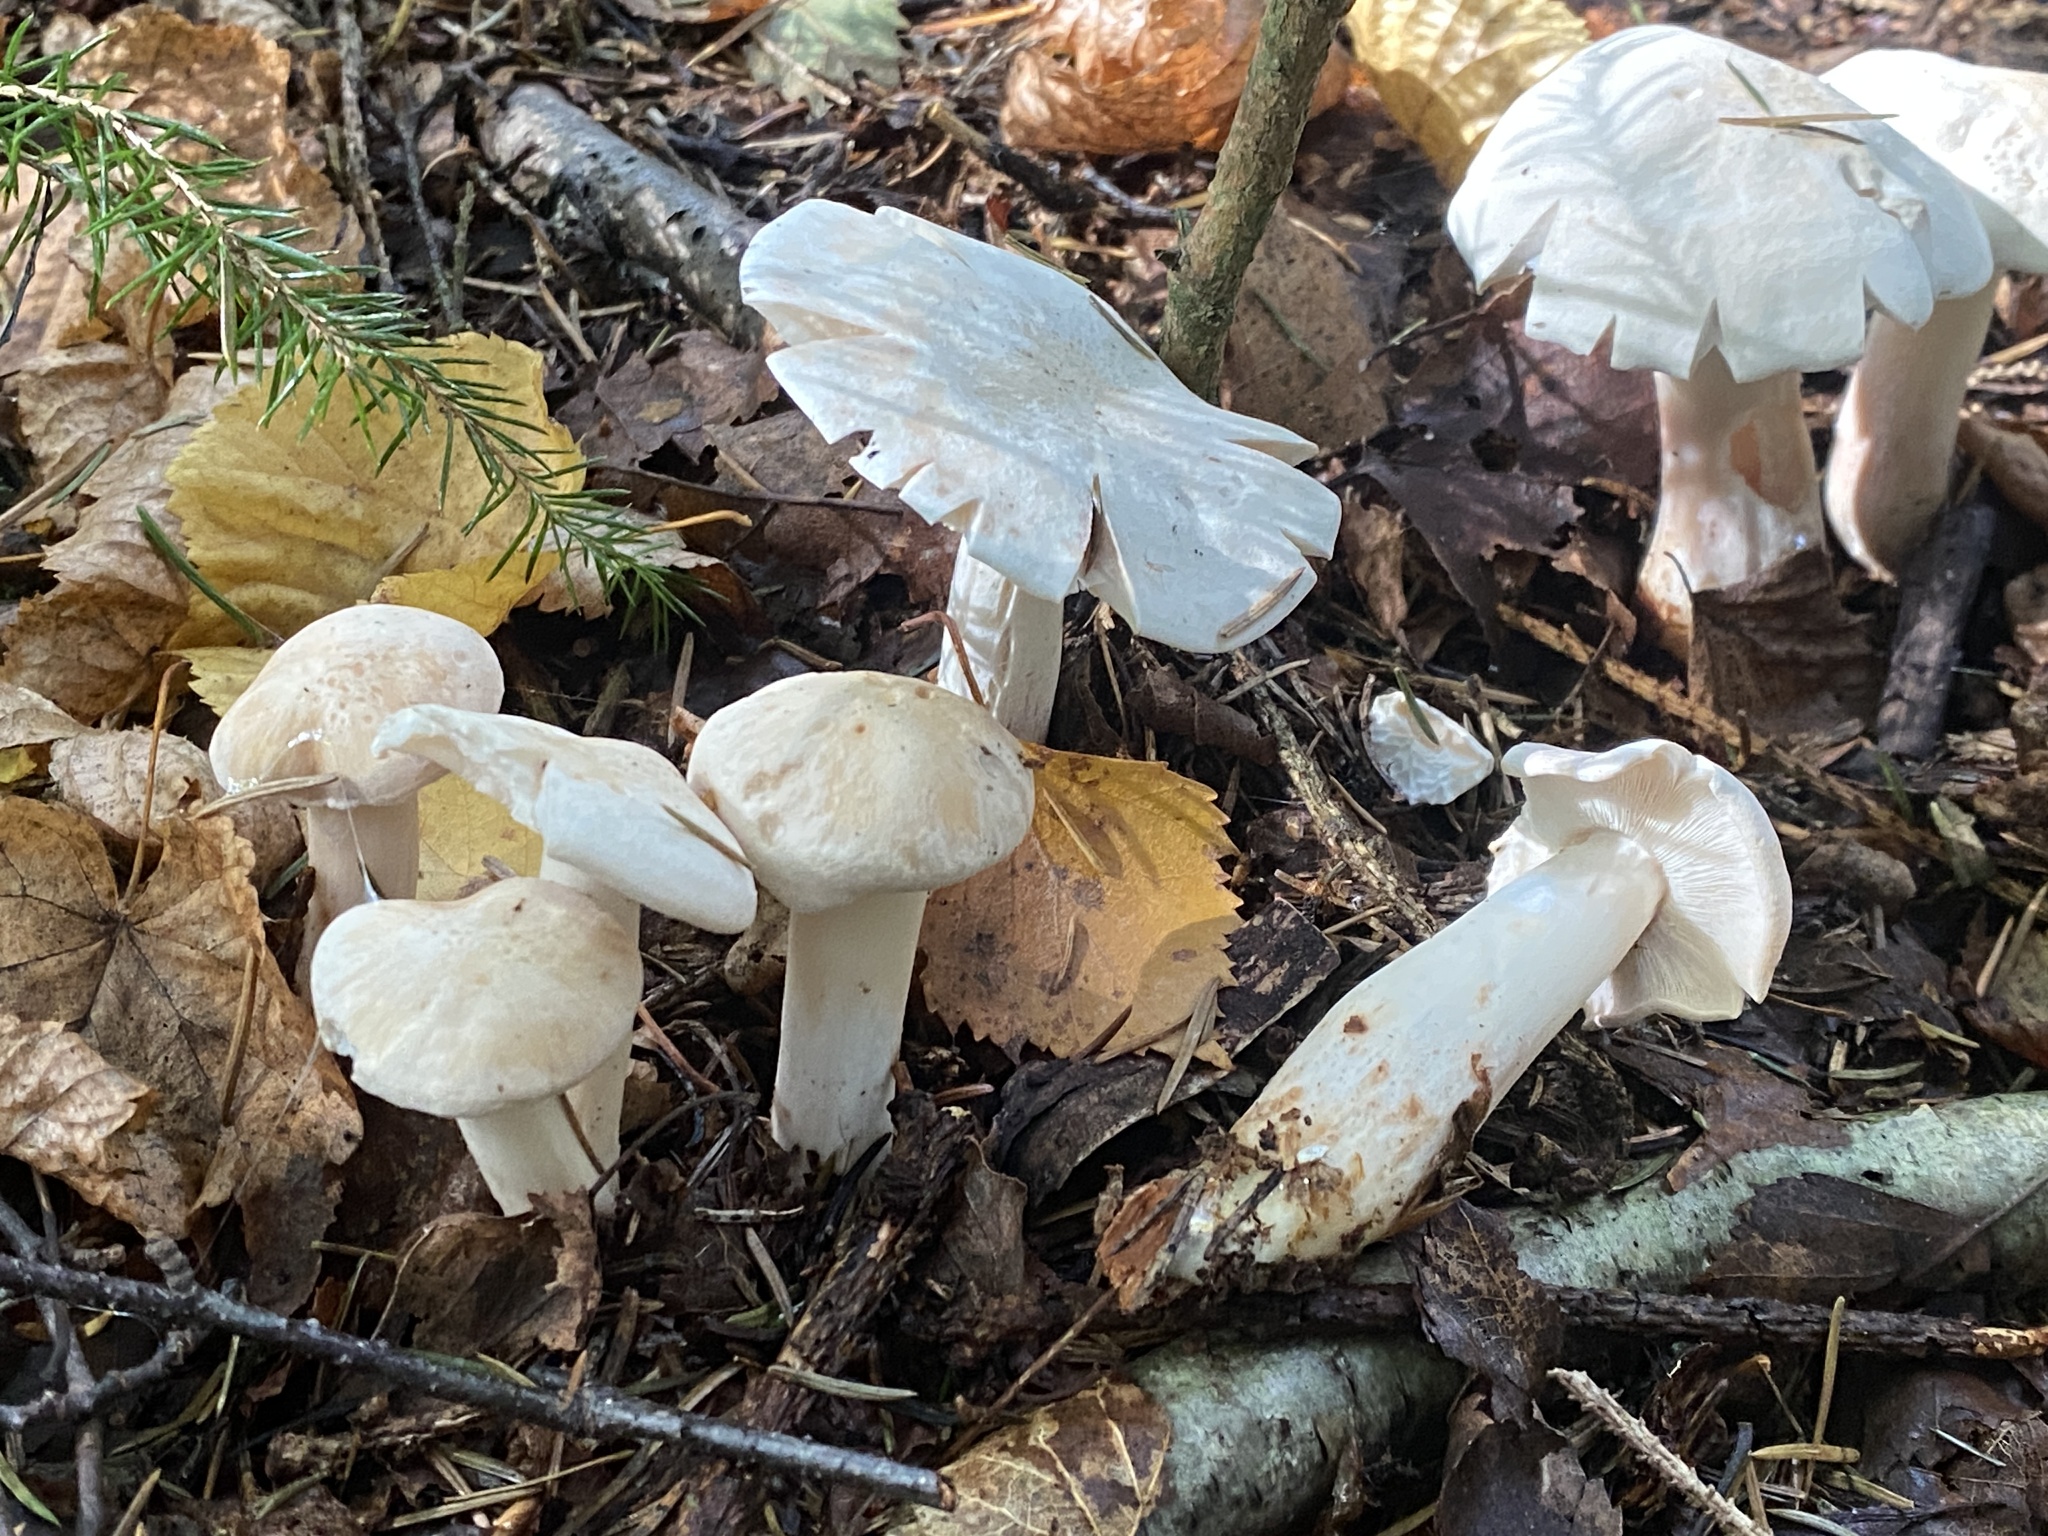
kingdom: Fungi
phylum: Basidiomycota
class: Agaricomycetes
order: Agaricales
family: Omphalotaceae
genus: Rhodocollybia
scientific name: Rhodocollybia maculata
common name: Spotted tough-shank
